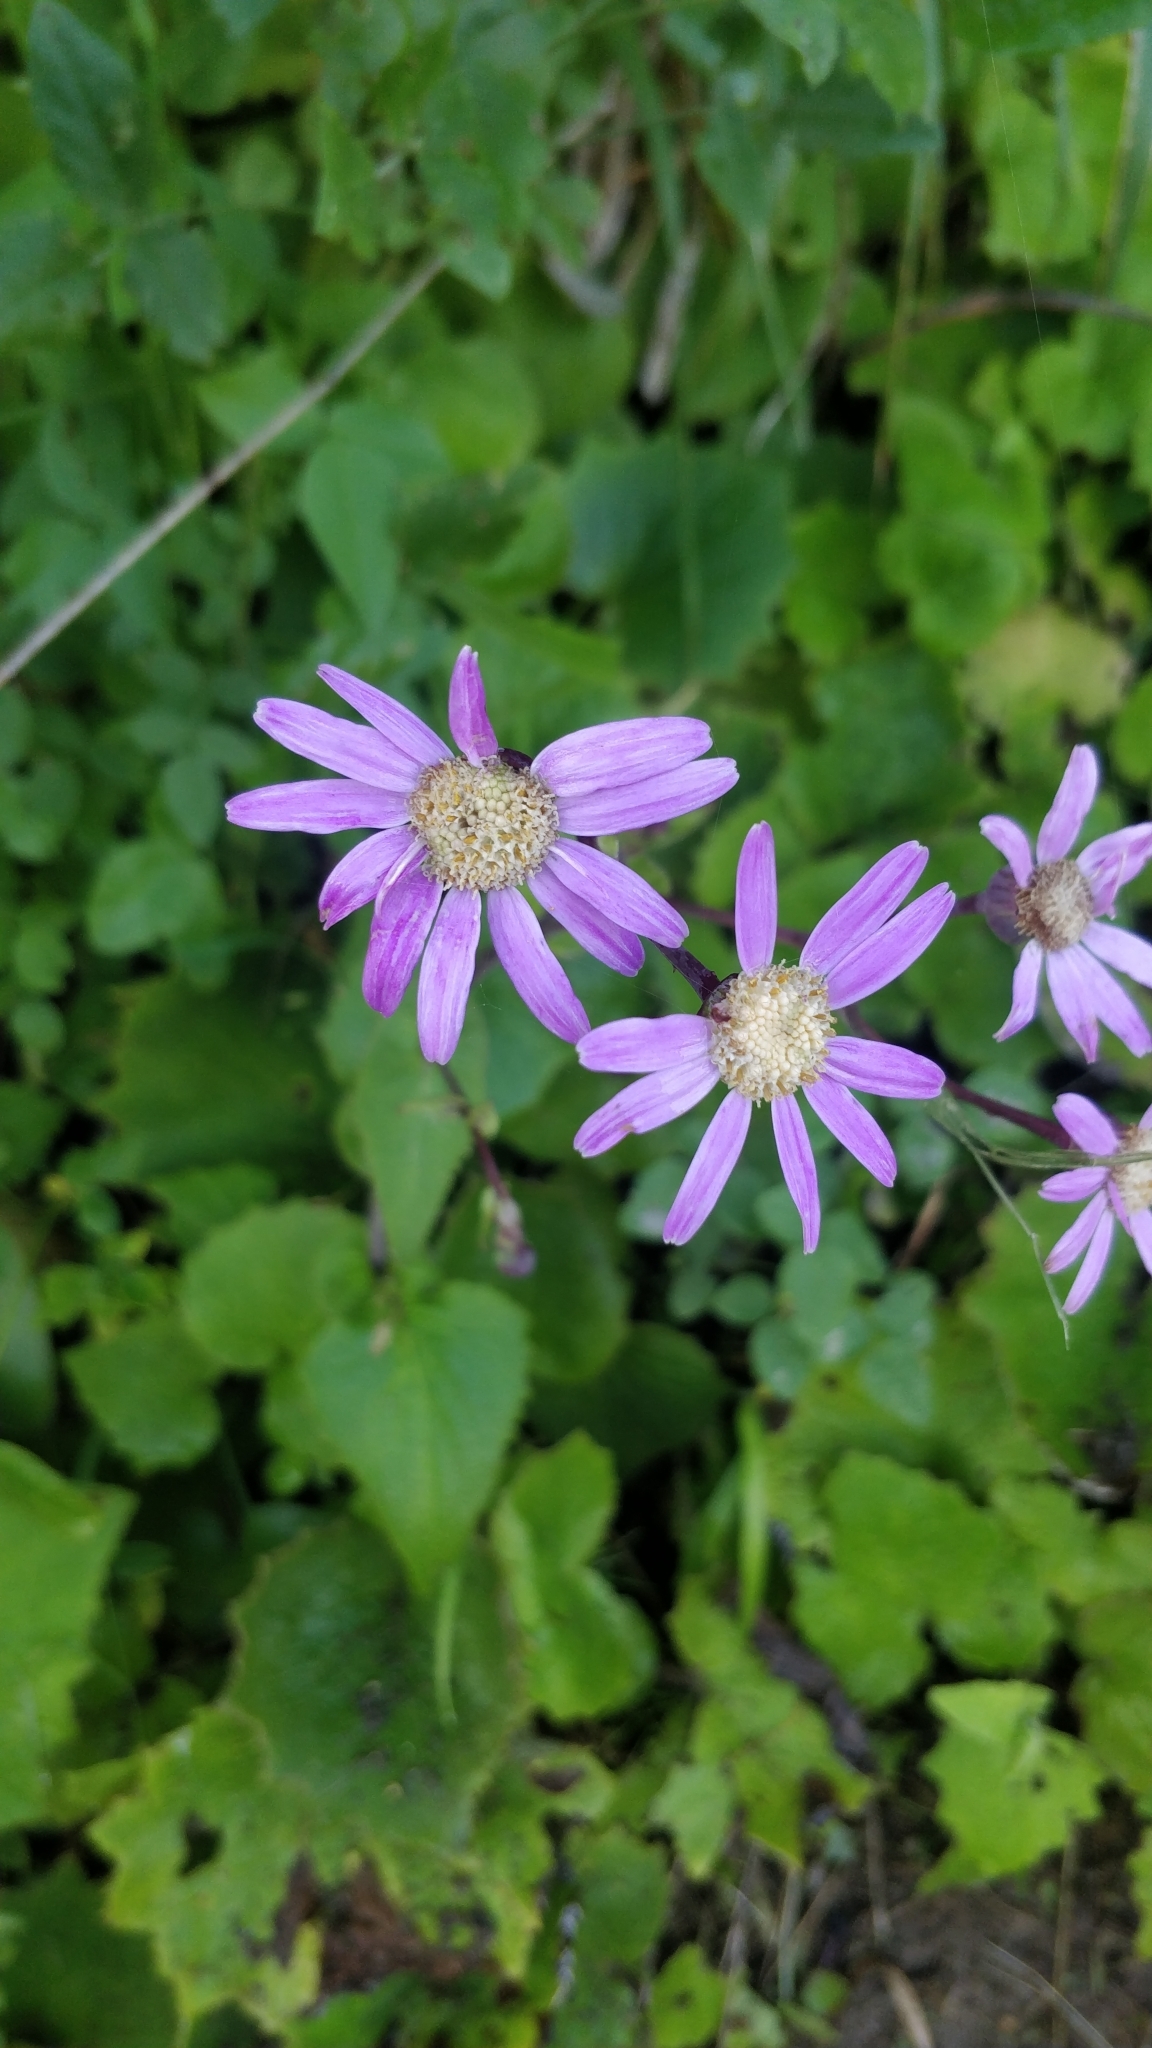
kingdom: Plantae
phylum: Tracheophyta
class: Magnoliopsida
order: Asterales
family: Asteraceae
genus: Pericallis
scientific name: Pericallis tussilaginis
